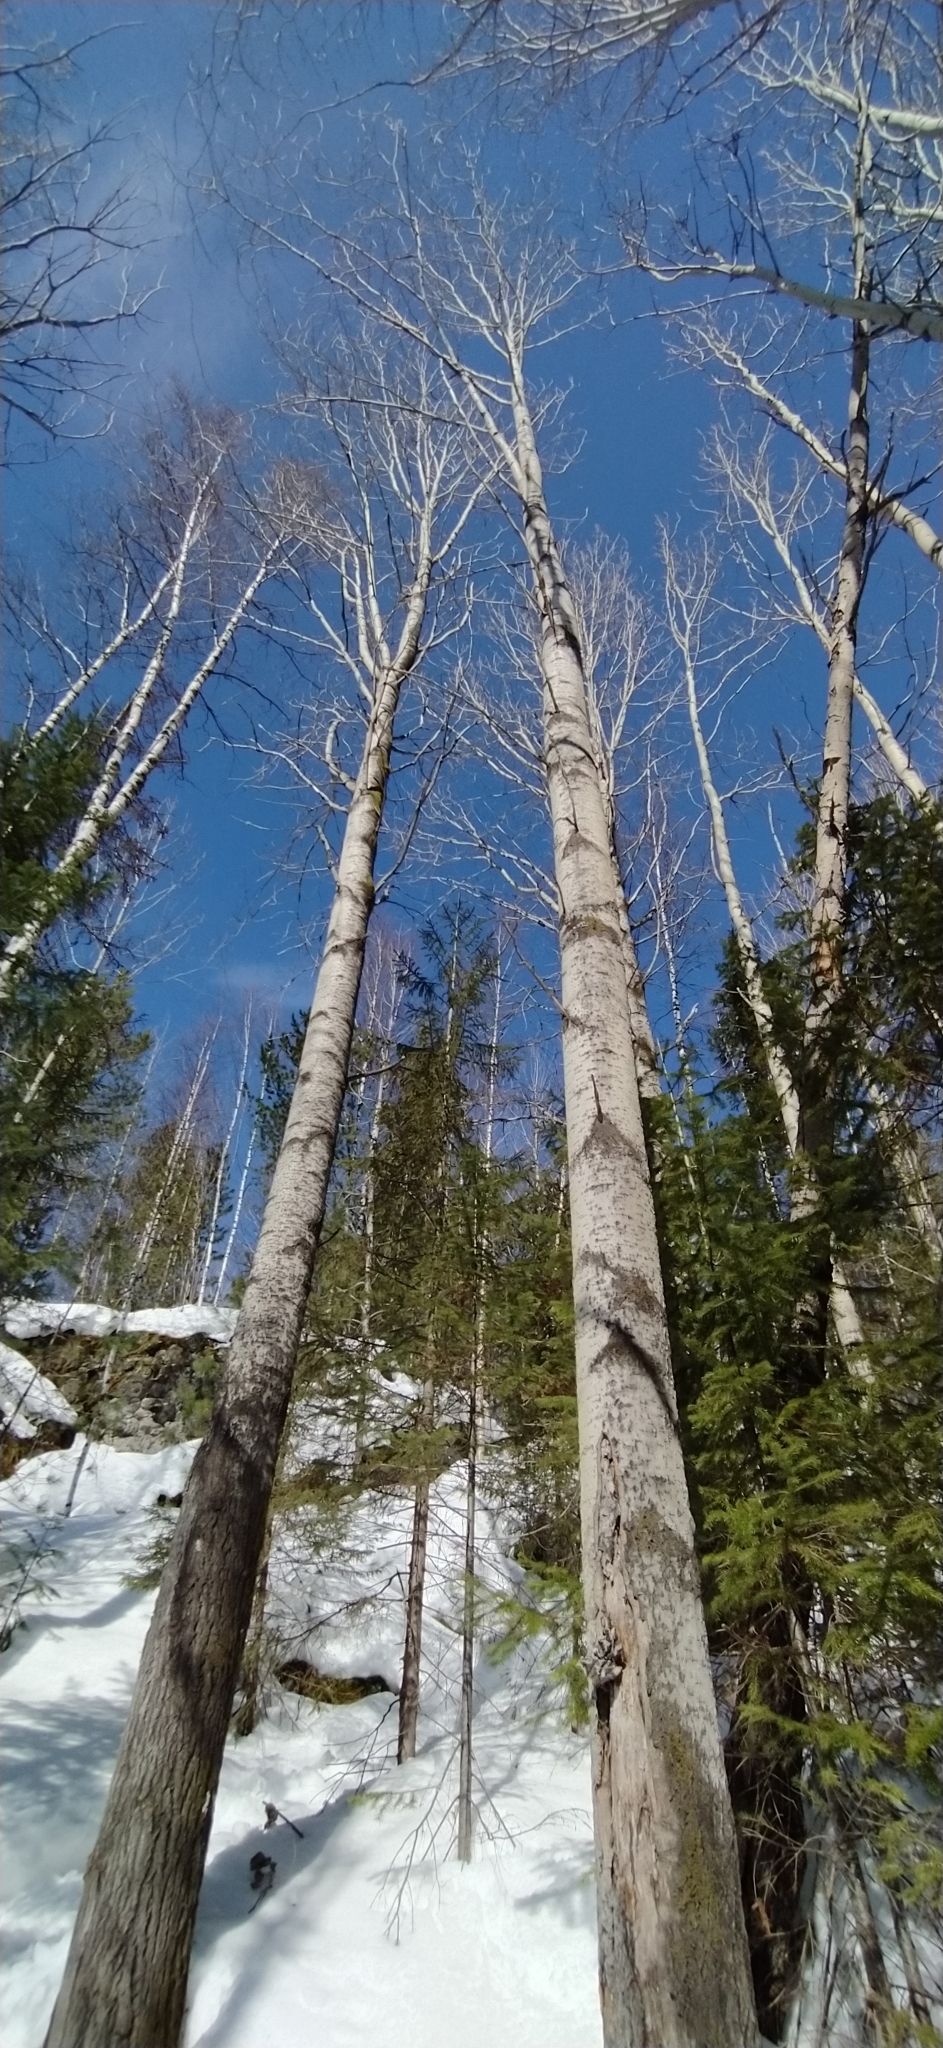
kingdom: Plantae
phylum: Tracheophyta
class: Magnoliopsida
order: Malpighiales
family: Salicaceae
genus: Populus
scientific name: Populus tremula
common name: European aspen
